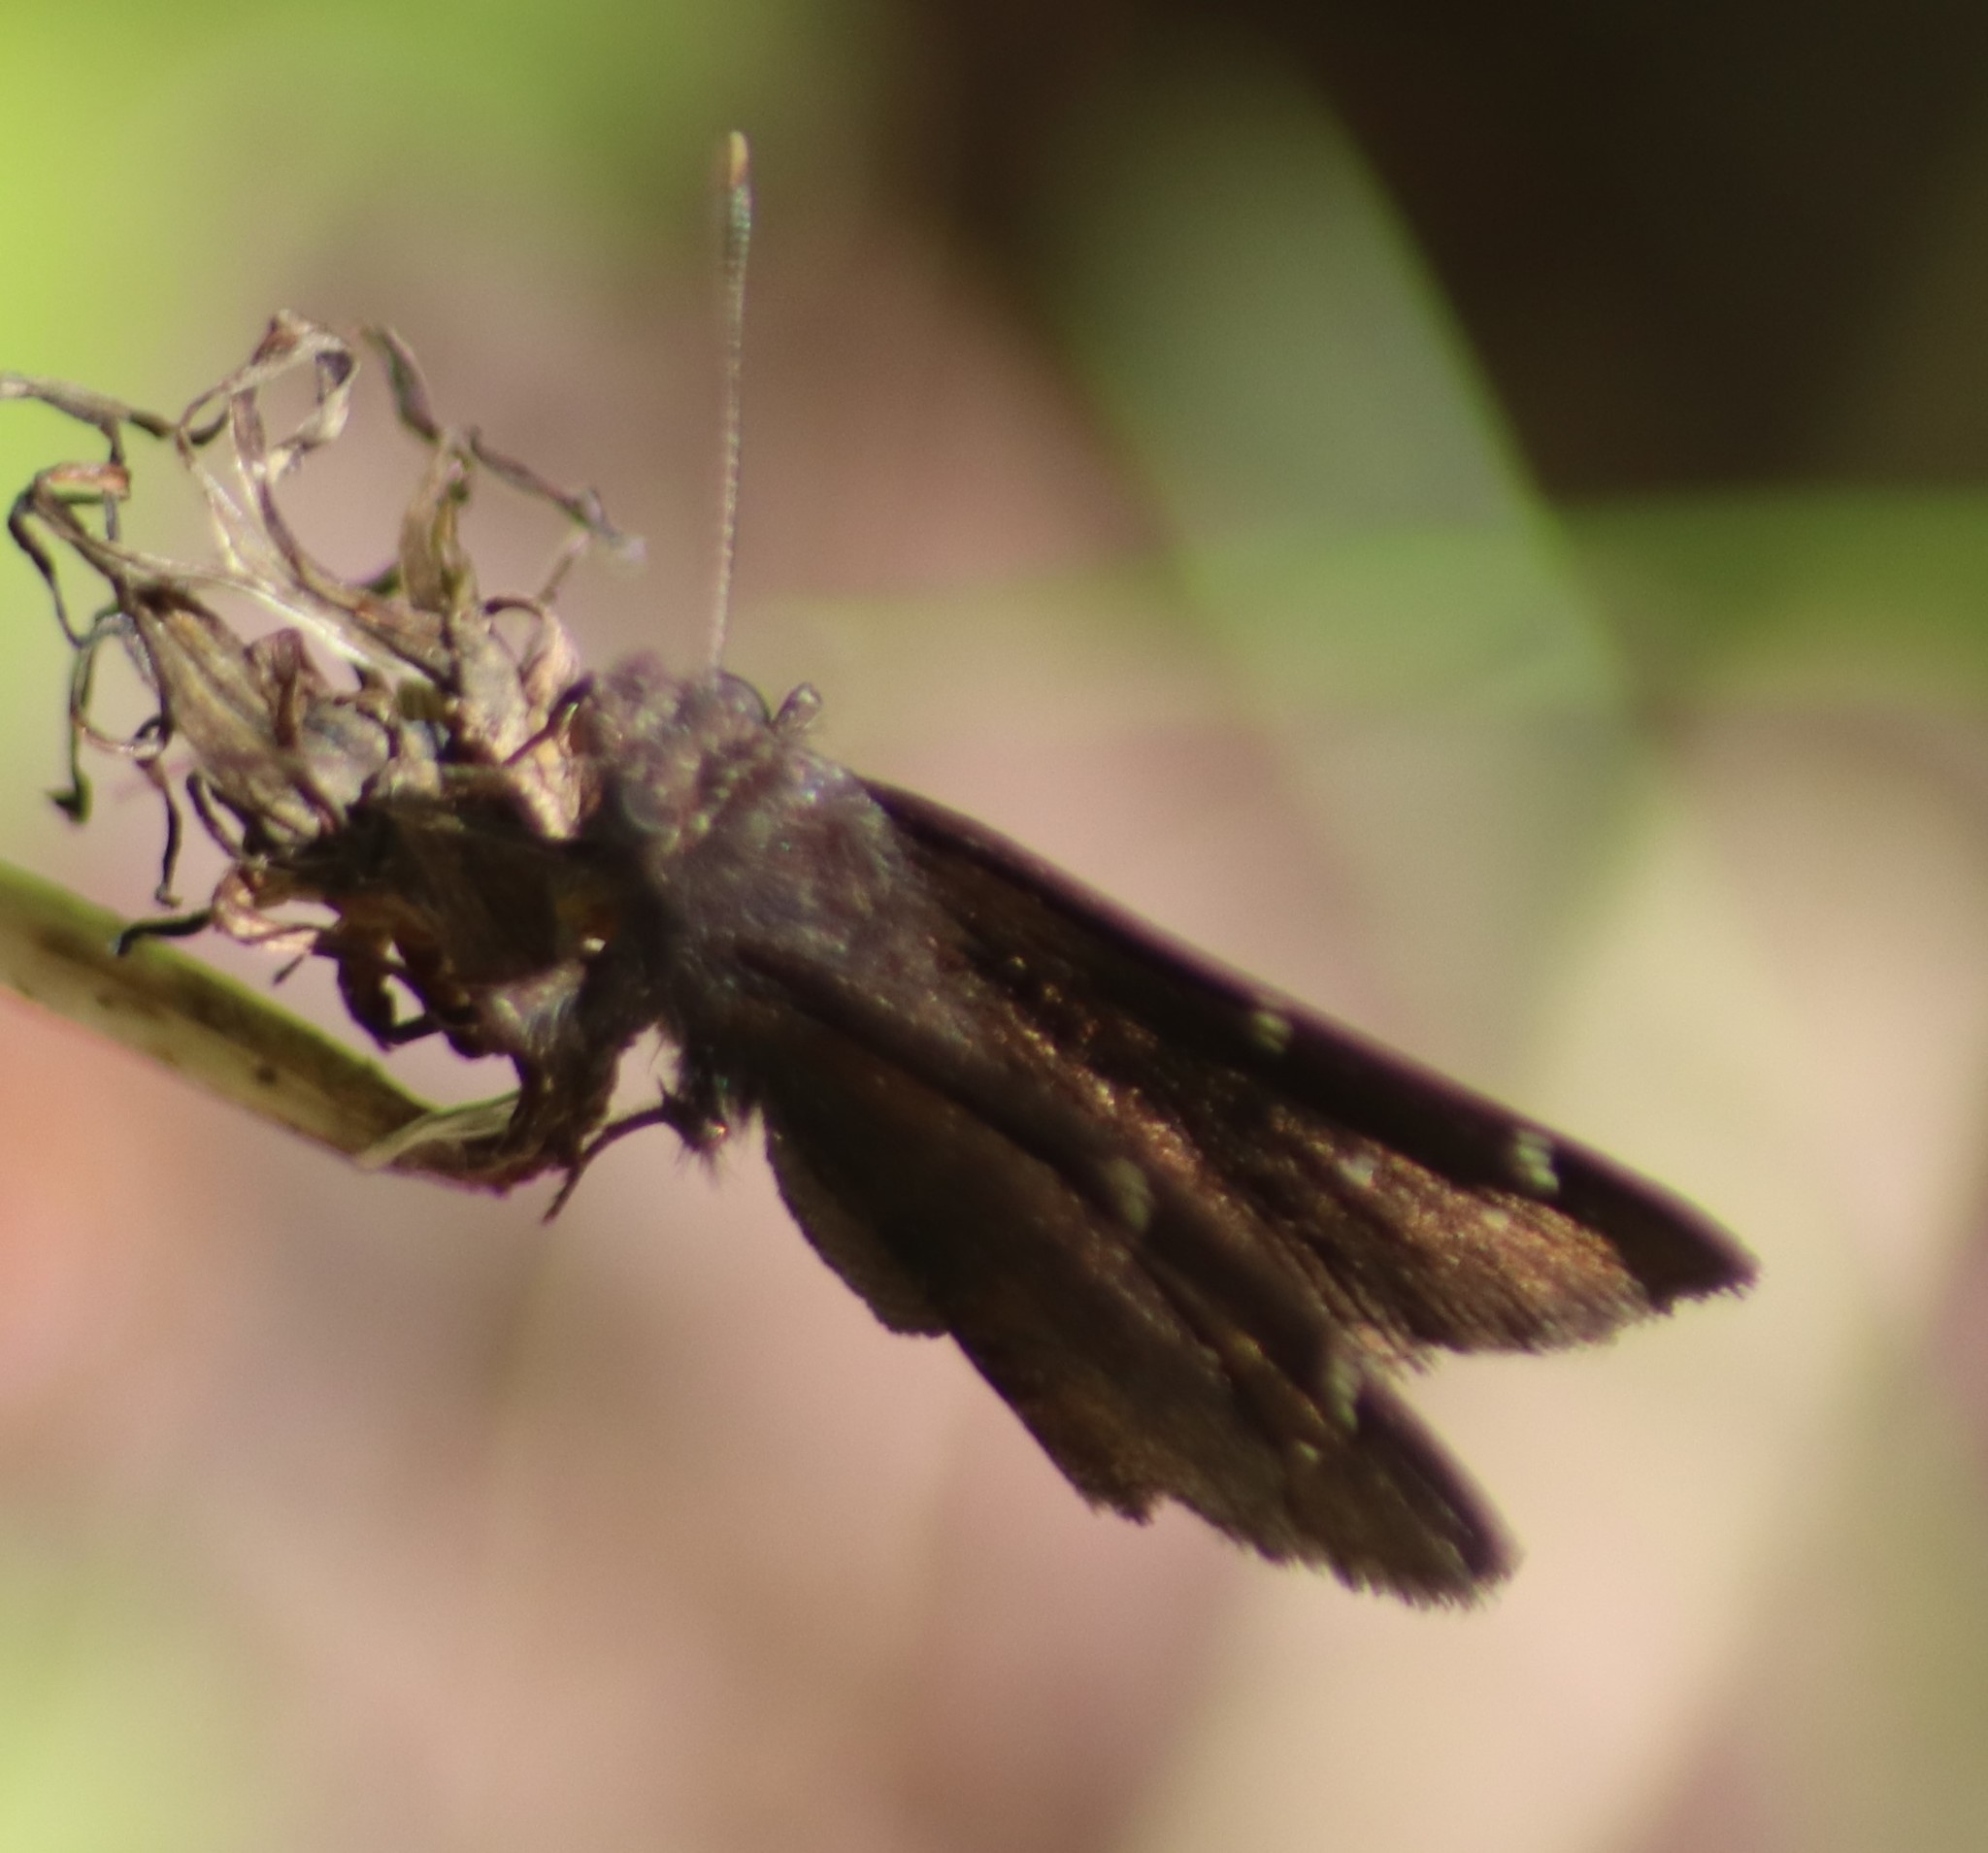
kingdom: Animalia
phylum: Arthropoda
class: Insecta
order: Lepidoptera
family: Hesperiidae
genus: Thorybes
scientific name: Thorybes pylades
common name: Northern cloudywing
